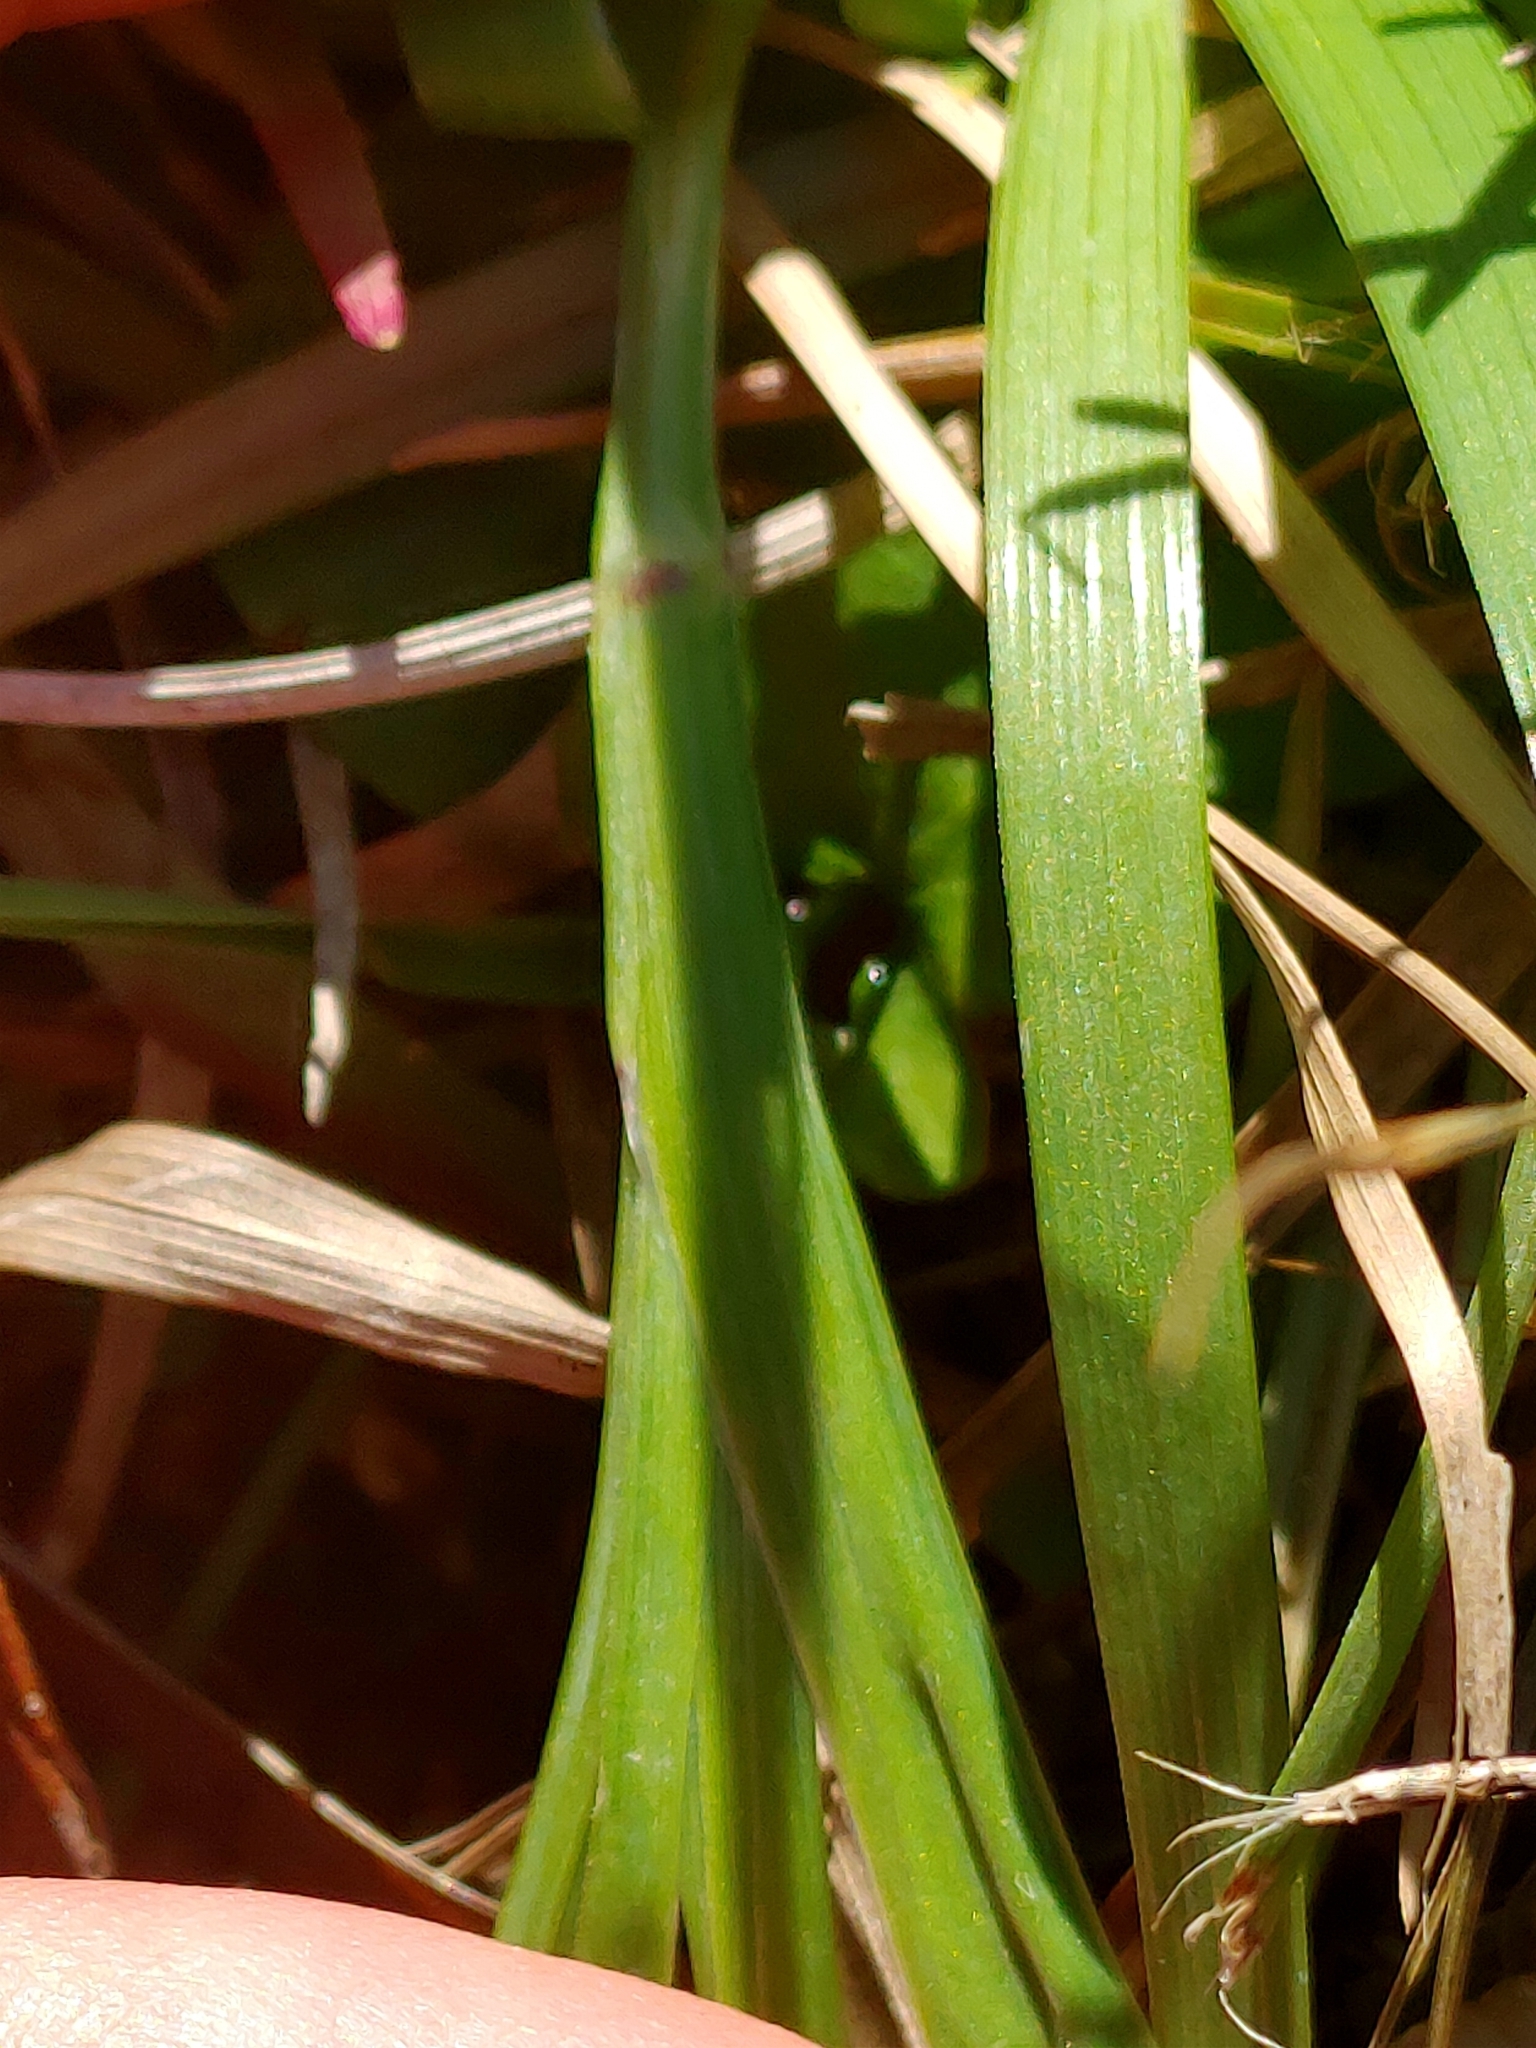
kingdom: Plantae
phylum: Tracheophyta
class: Liliopsida
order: Asparagales
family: Iridaceae
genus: Sisyrinchium
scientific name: Sisyrinchium micranthum
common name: Bermuda pigroot
